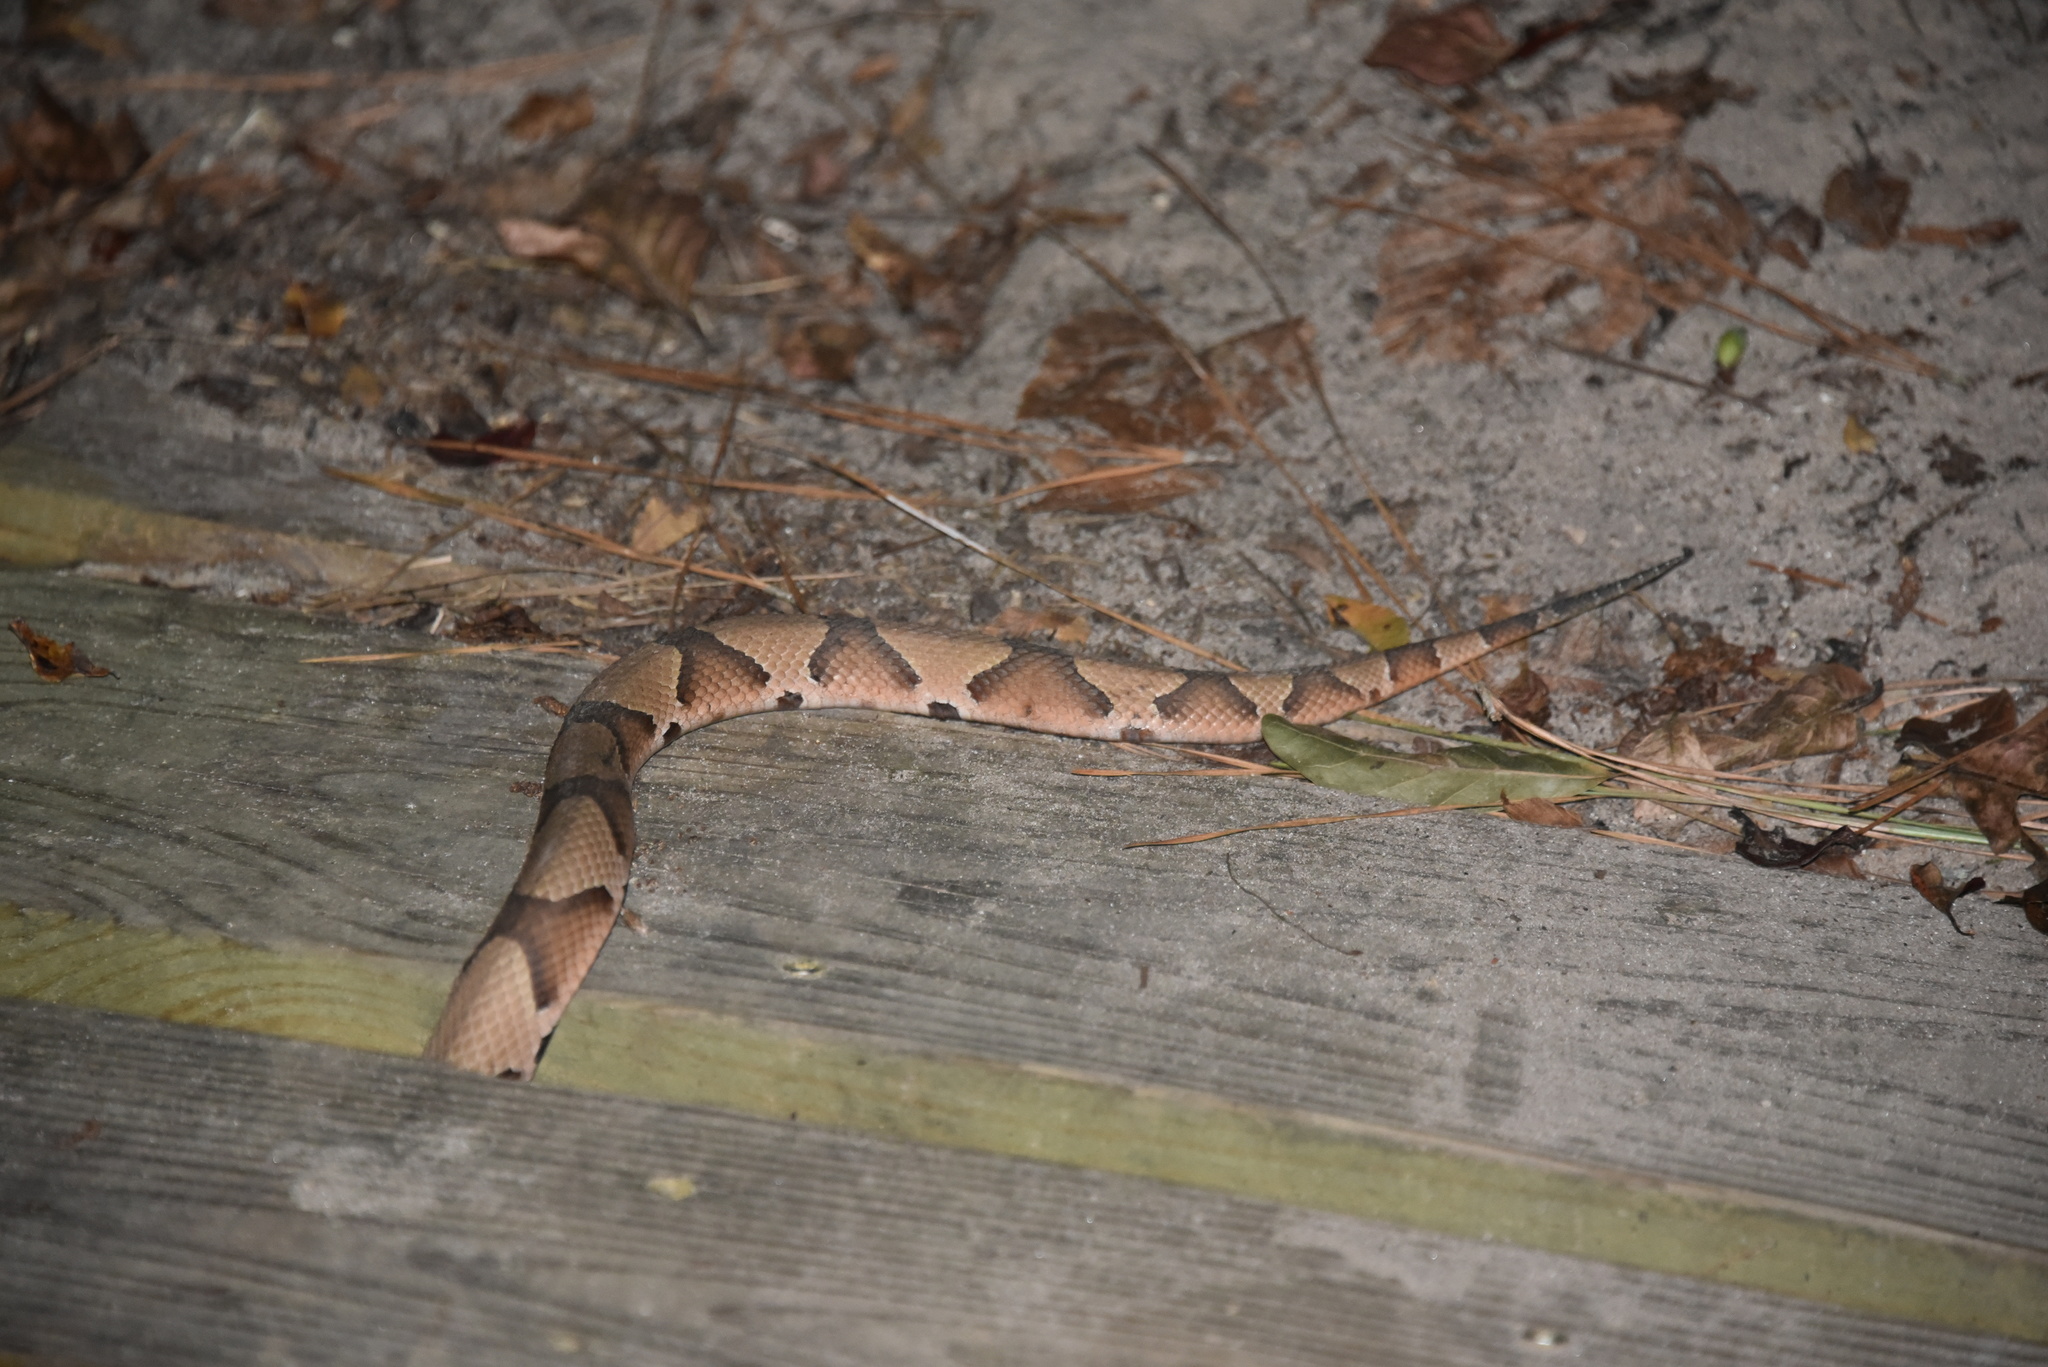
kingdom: Animalia
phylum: Chordata
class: Squamata
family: Viperidae
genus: Agkistrodon
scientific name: Agkistrodon contortrix
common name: Northern copperhead
